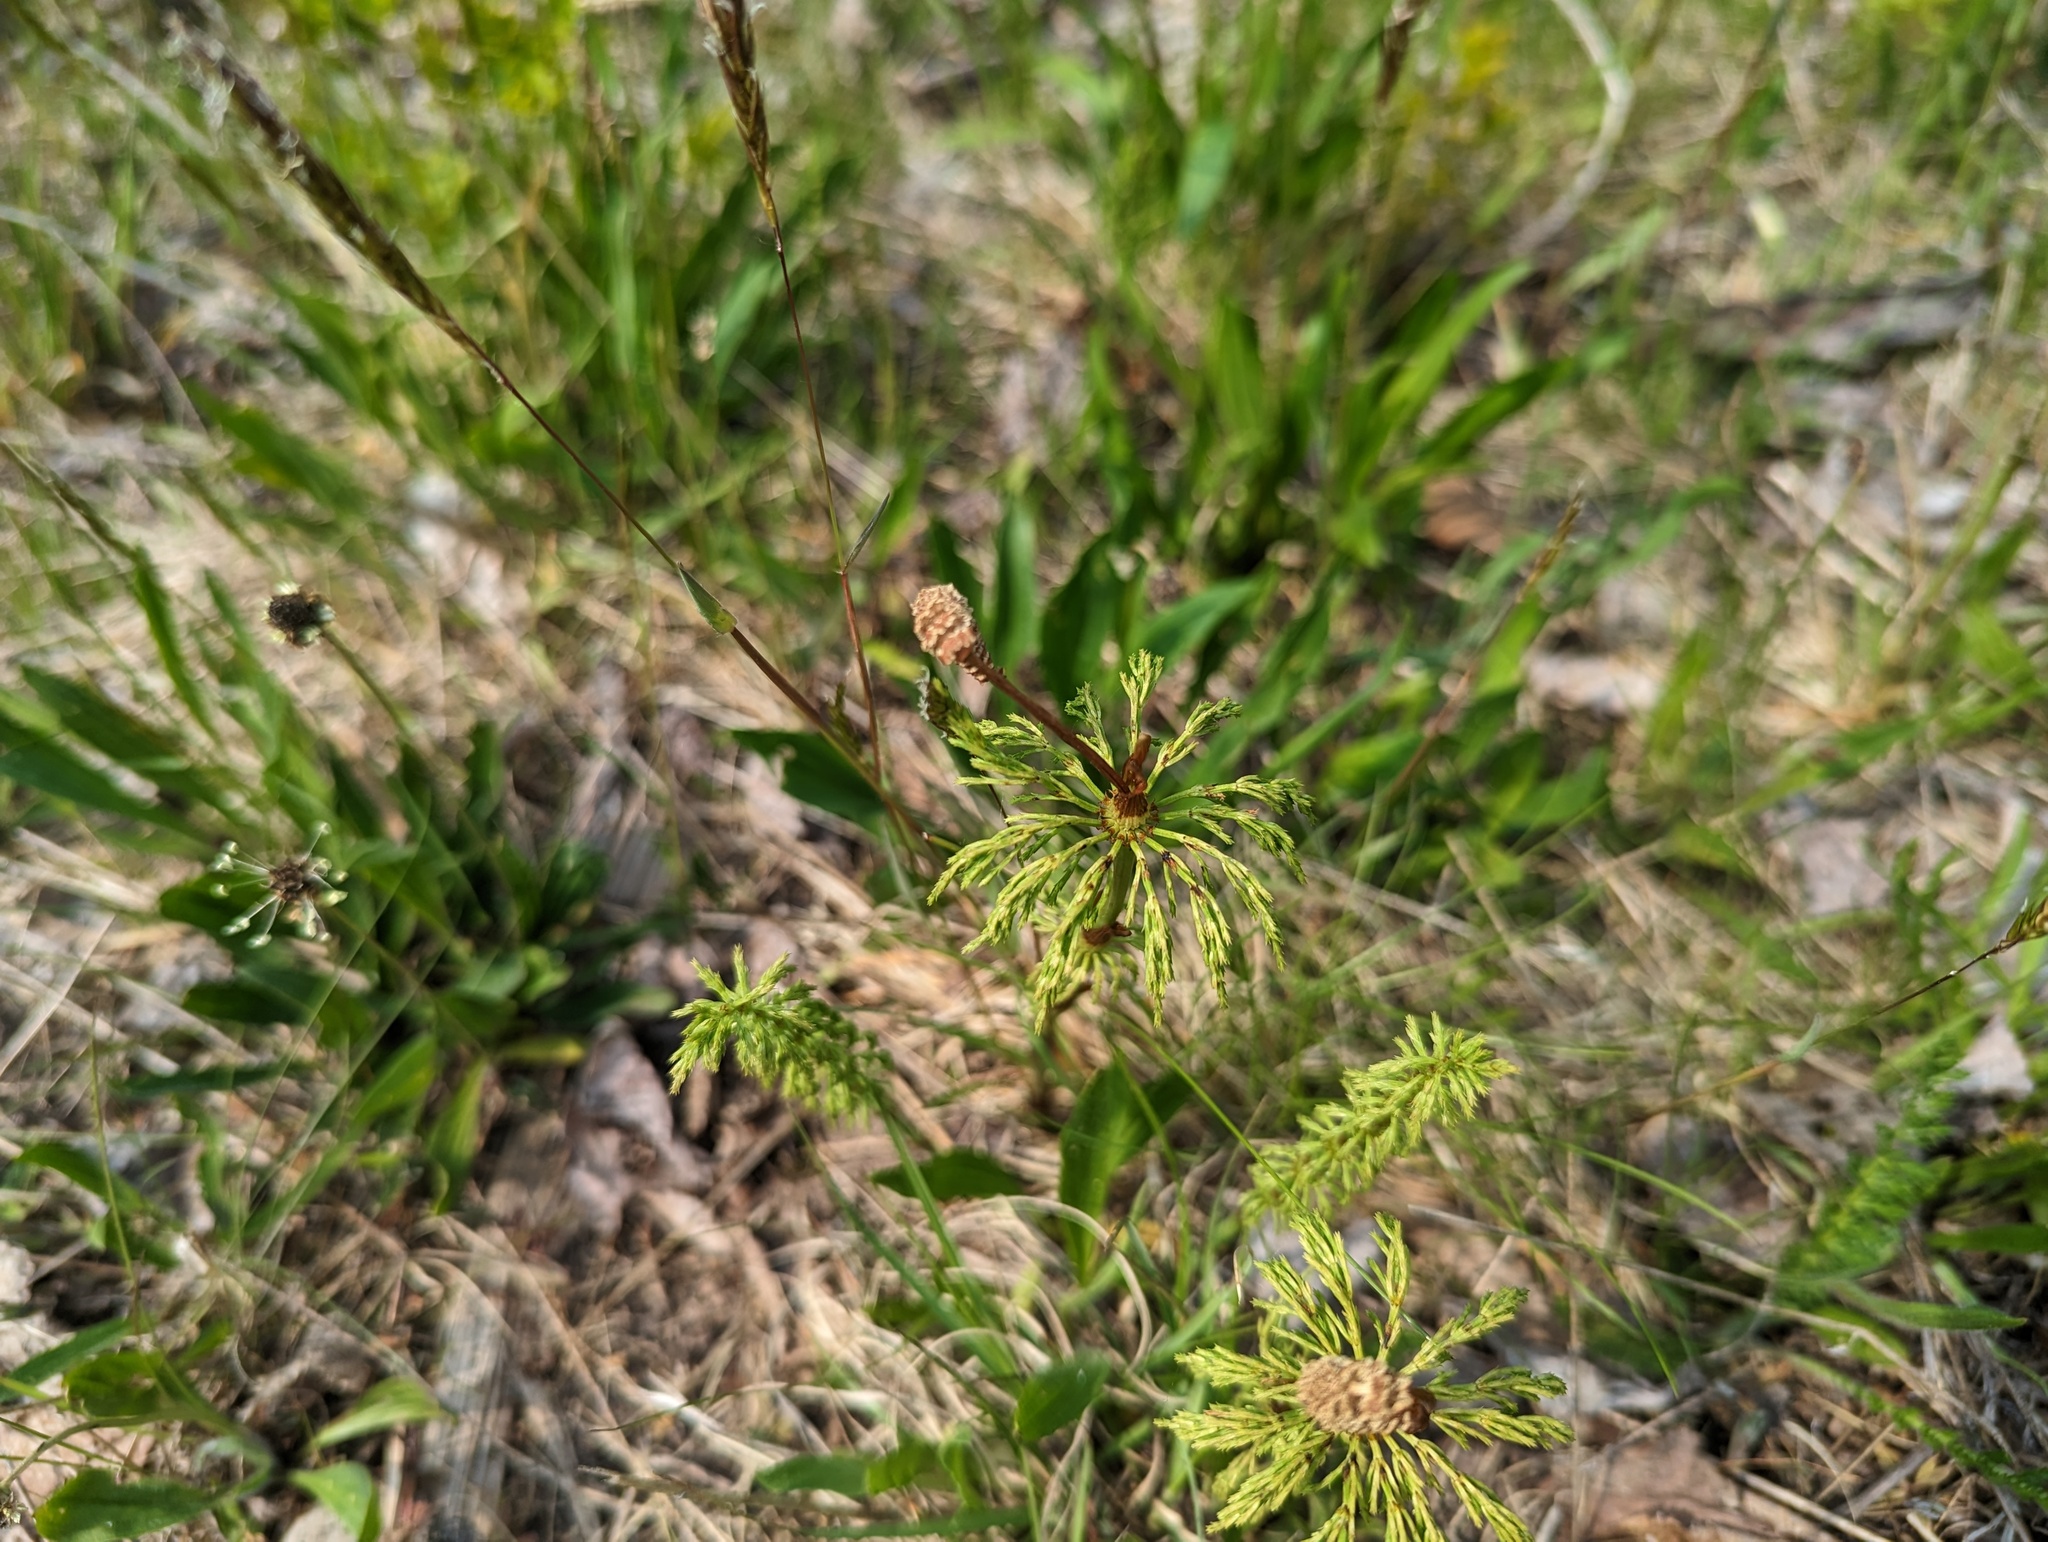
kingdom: Plantae
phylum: Tracheophyta
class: Polypodiopsida
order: Equisetales
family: Equisetaceae
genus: Equisetum
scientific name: Equisetum sylvaticum
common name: Wood horsetail
